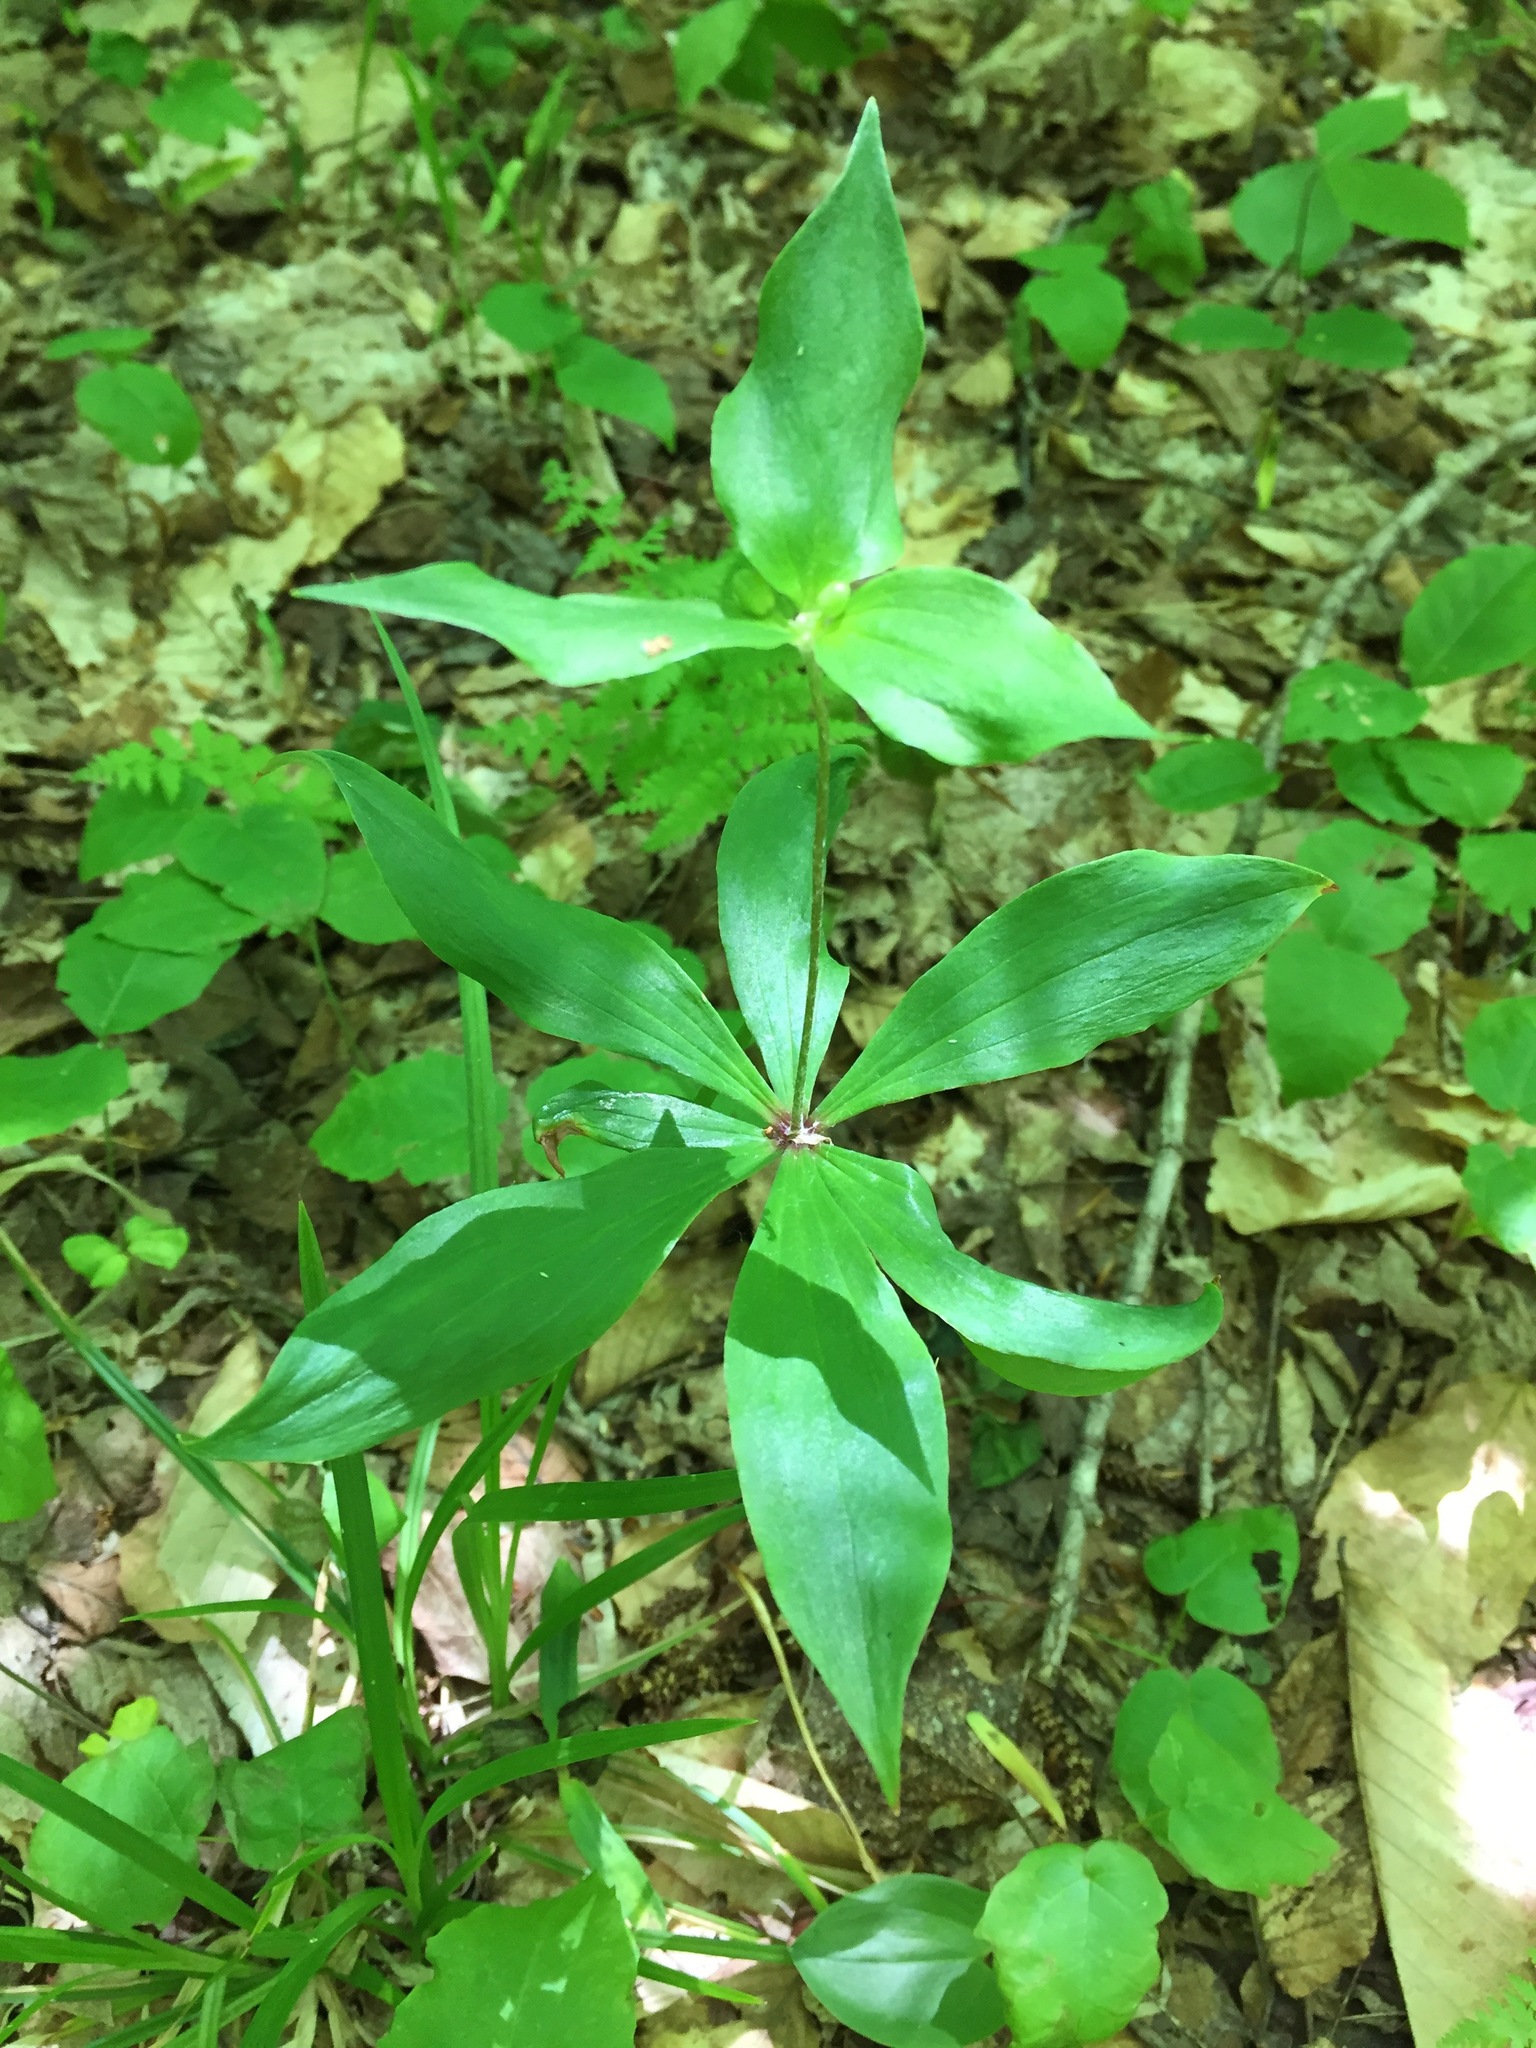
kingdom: Plantae
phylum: Tracheophyta
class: Liliopsida
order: Liliales
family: Liliaceae
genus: Medeola
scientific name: Medeola virginiana
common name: Indian cucumber-root
